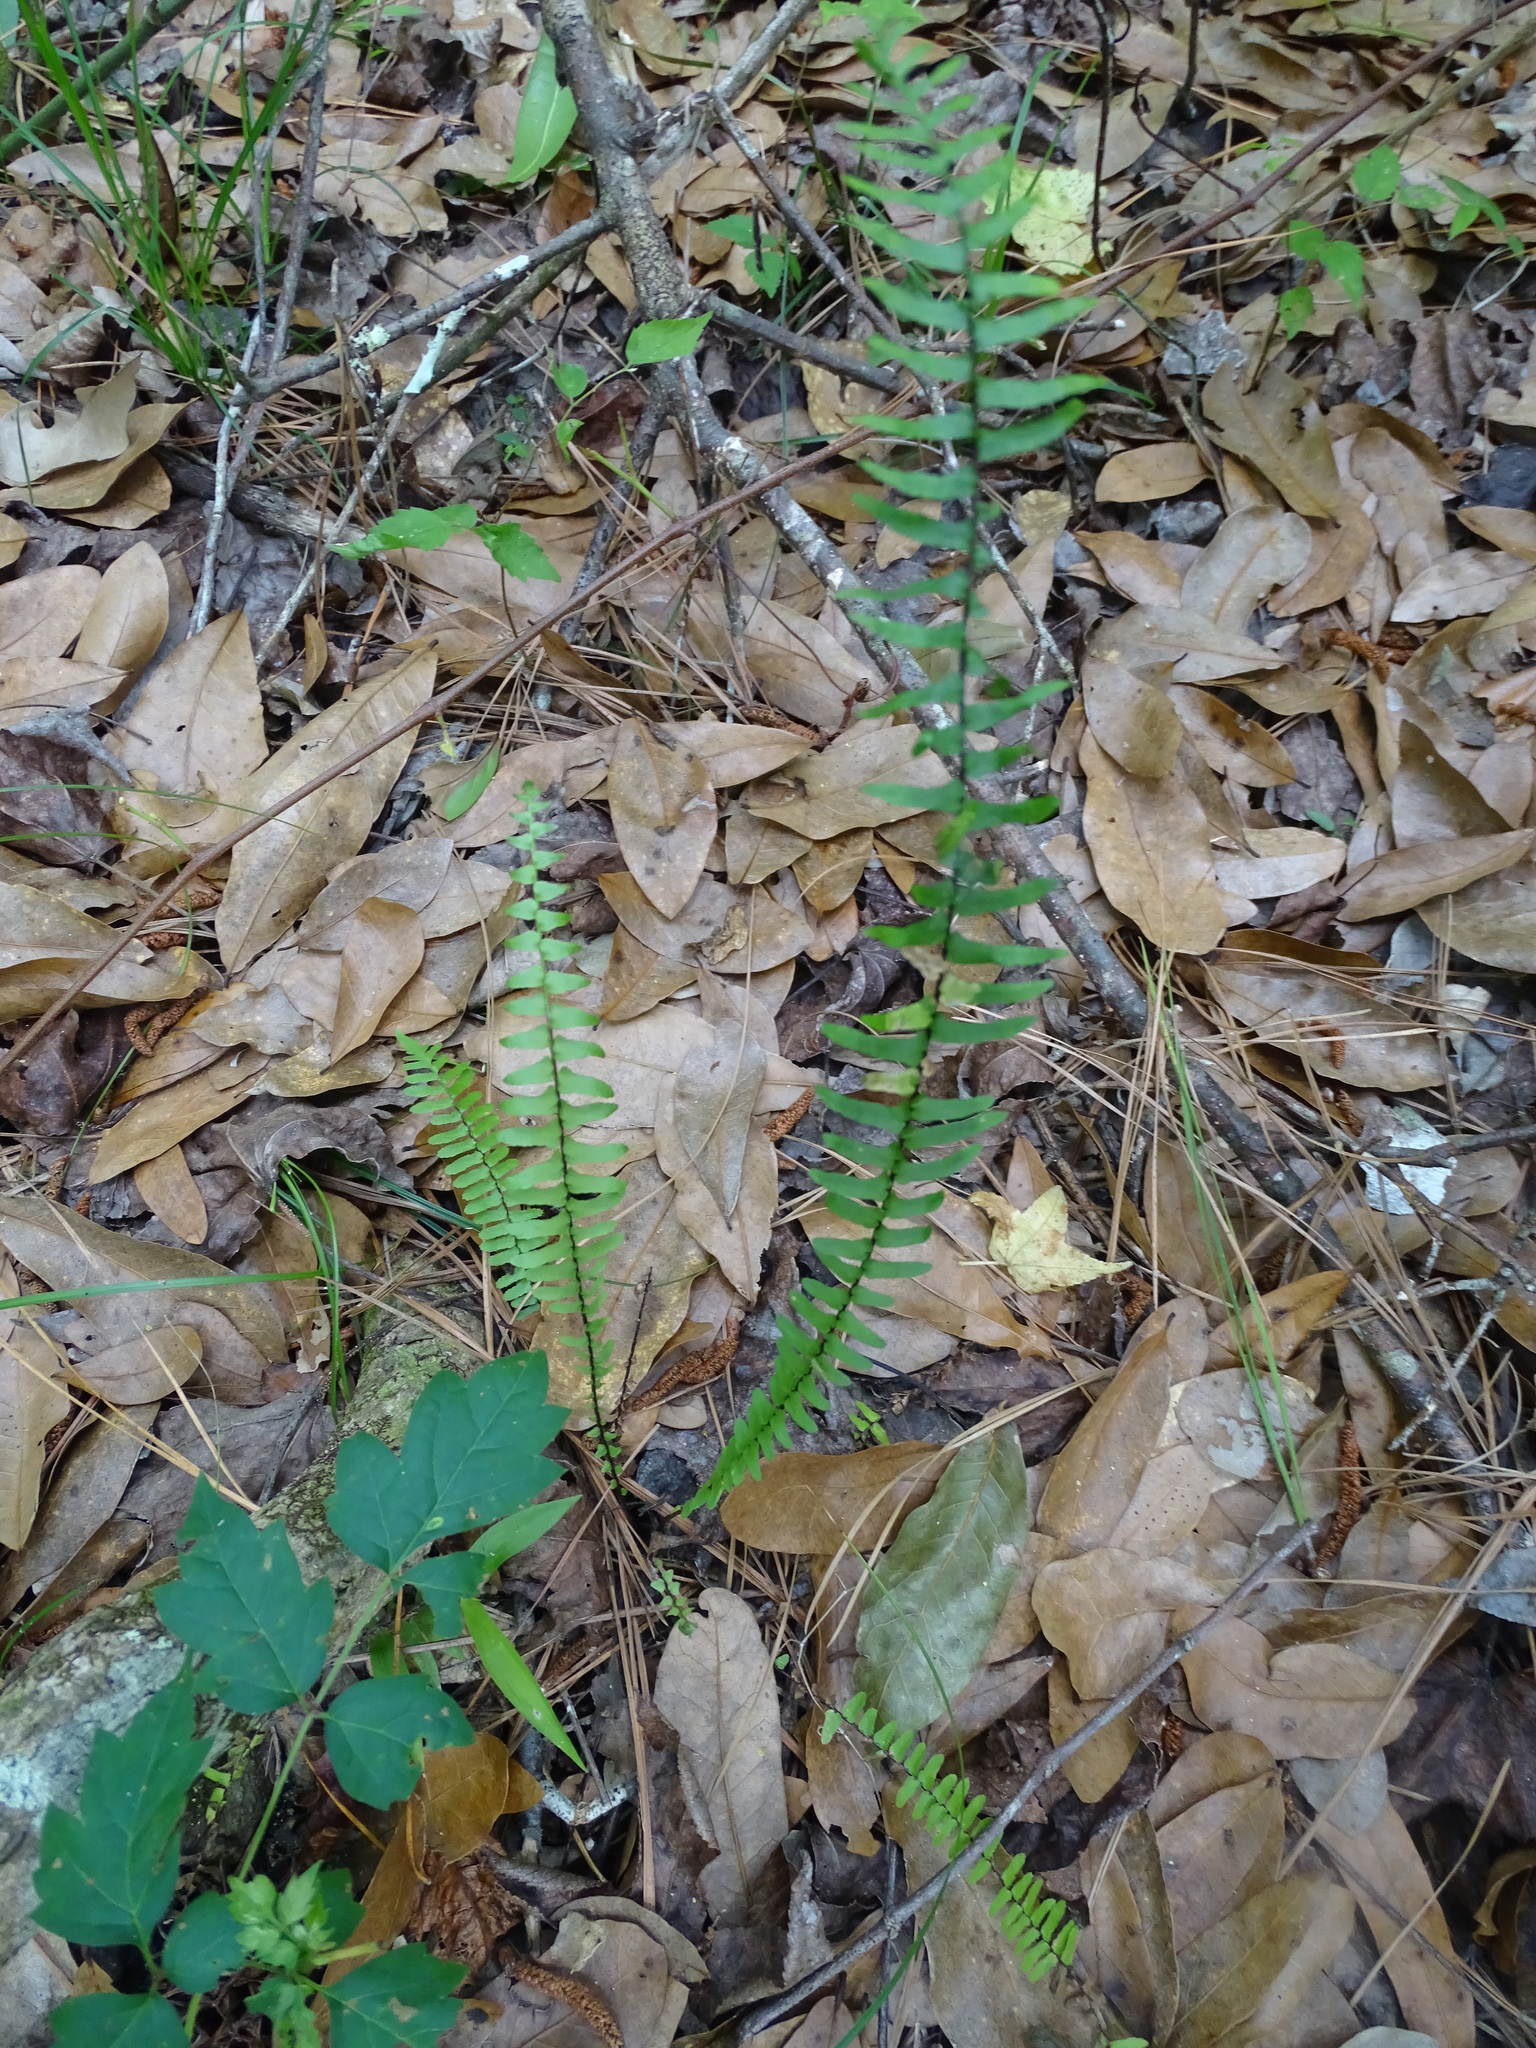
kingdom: Plantae
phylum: Tracheophyta
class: Polypodiopsida
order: Polypodiales
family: Aspleniaceae
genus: Asplenium
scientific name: Asplenium platyneuron
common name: Ebony spleenwort
